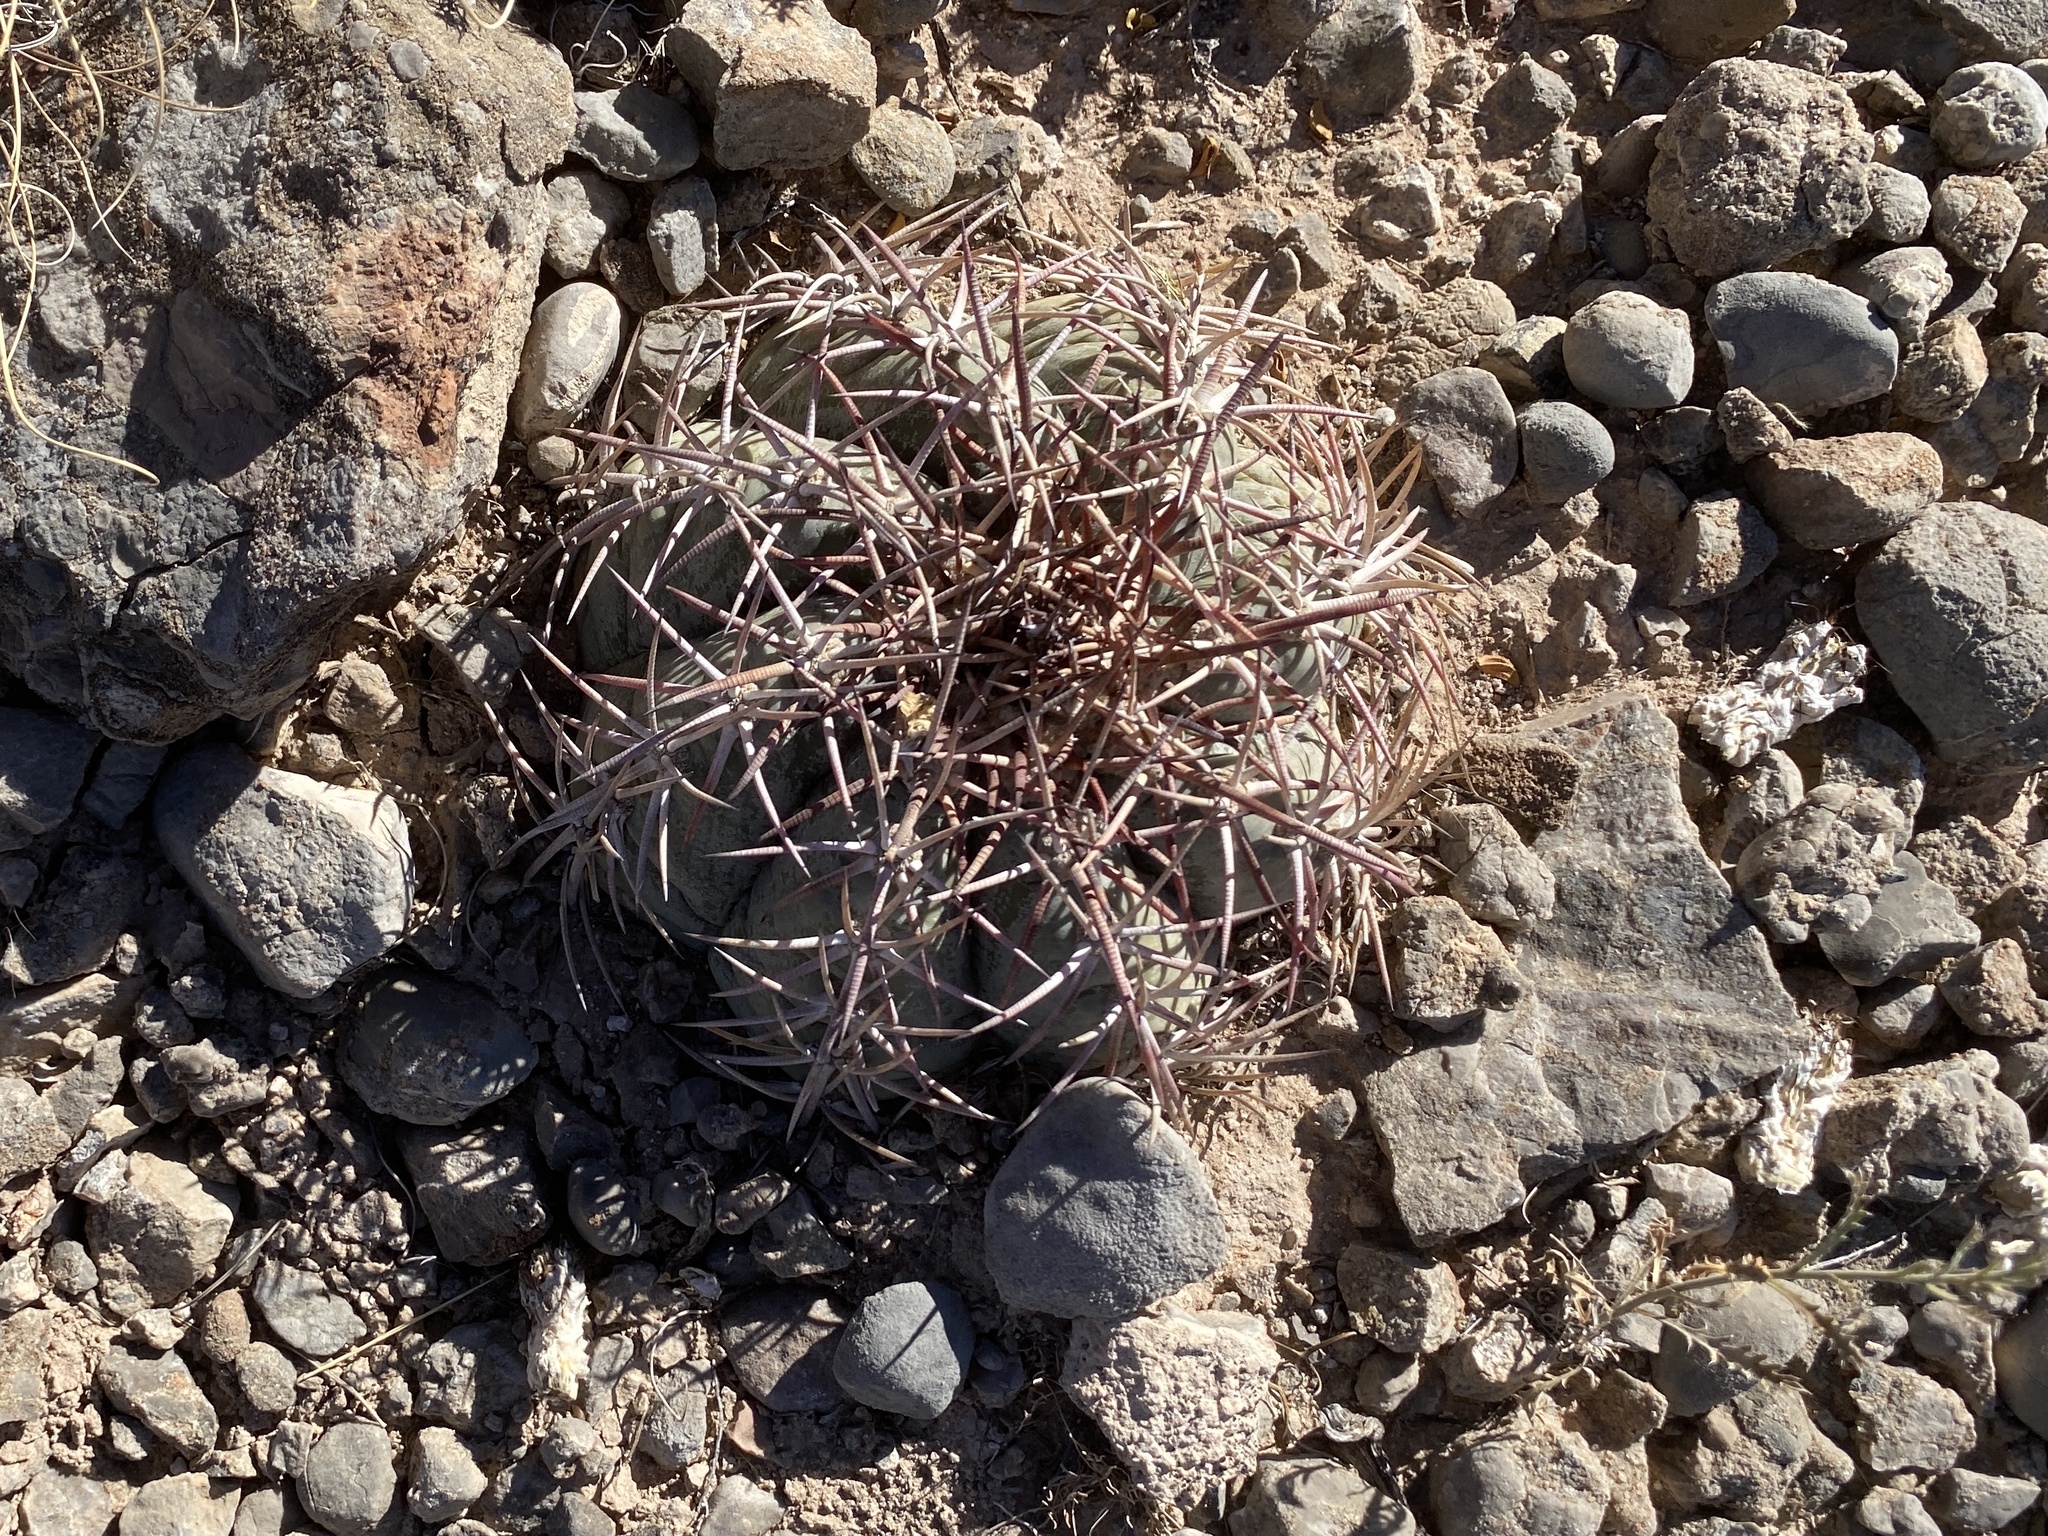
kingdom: Plantae
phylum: Tracheophyta
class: Magnoliopsida
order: Caryophyllales
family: Cactaceae
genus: Echinocactus
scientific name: Echinocactus horizonthalonius
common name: Devilshead
